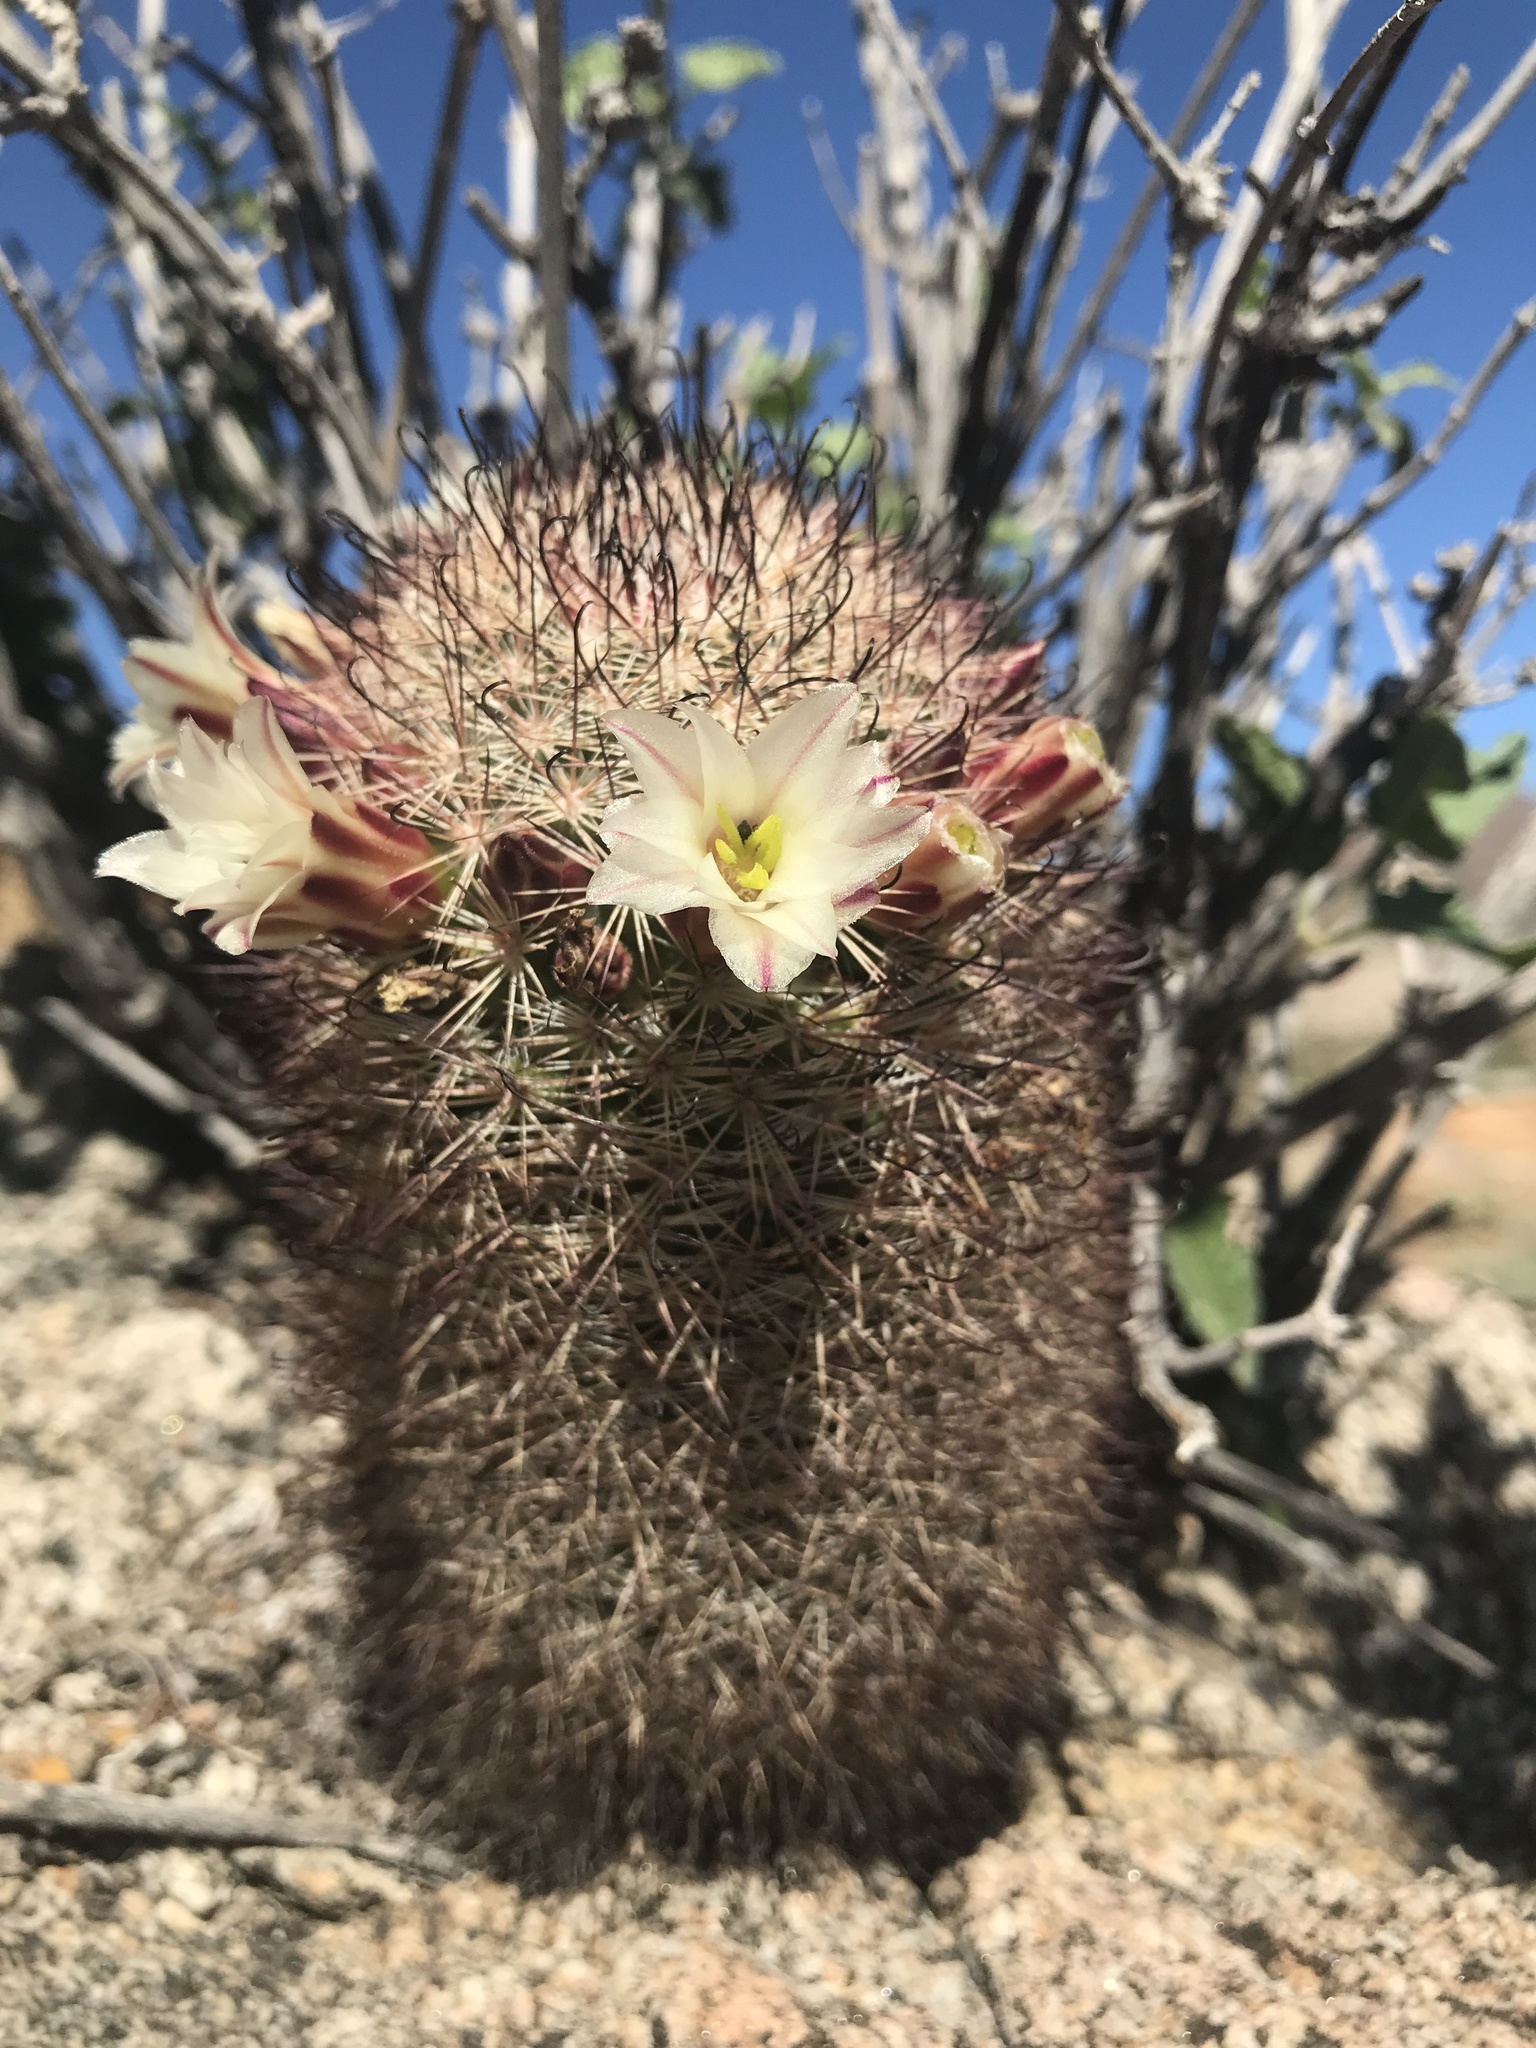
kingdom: Plantae
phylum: Tracheophyta
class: Magnoliopsida
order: Caryophyllales
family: Cactaceae
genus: Cochemiea
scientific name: Cochemiea dioica
